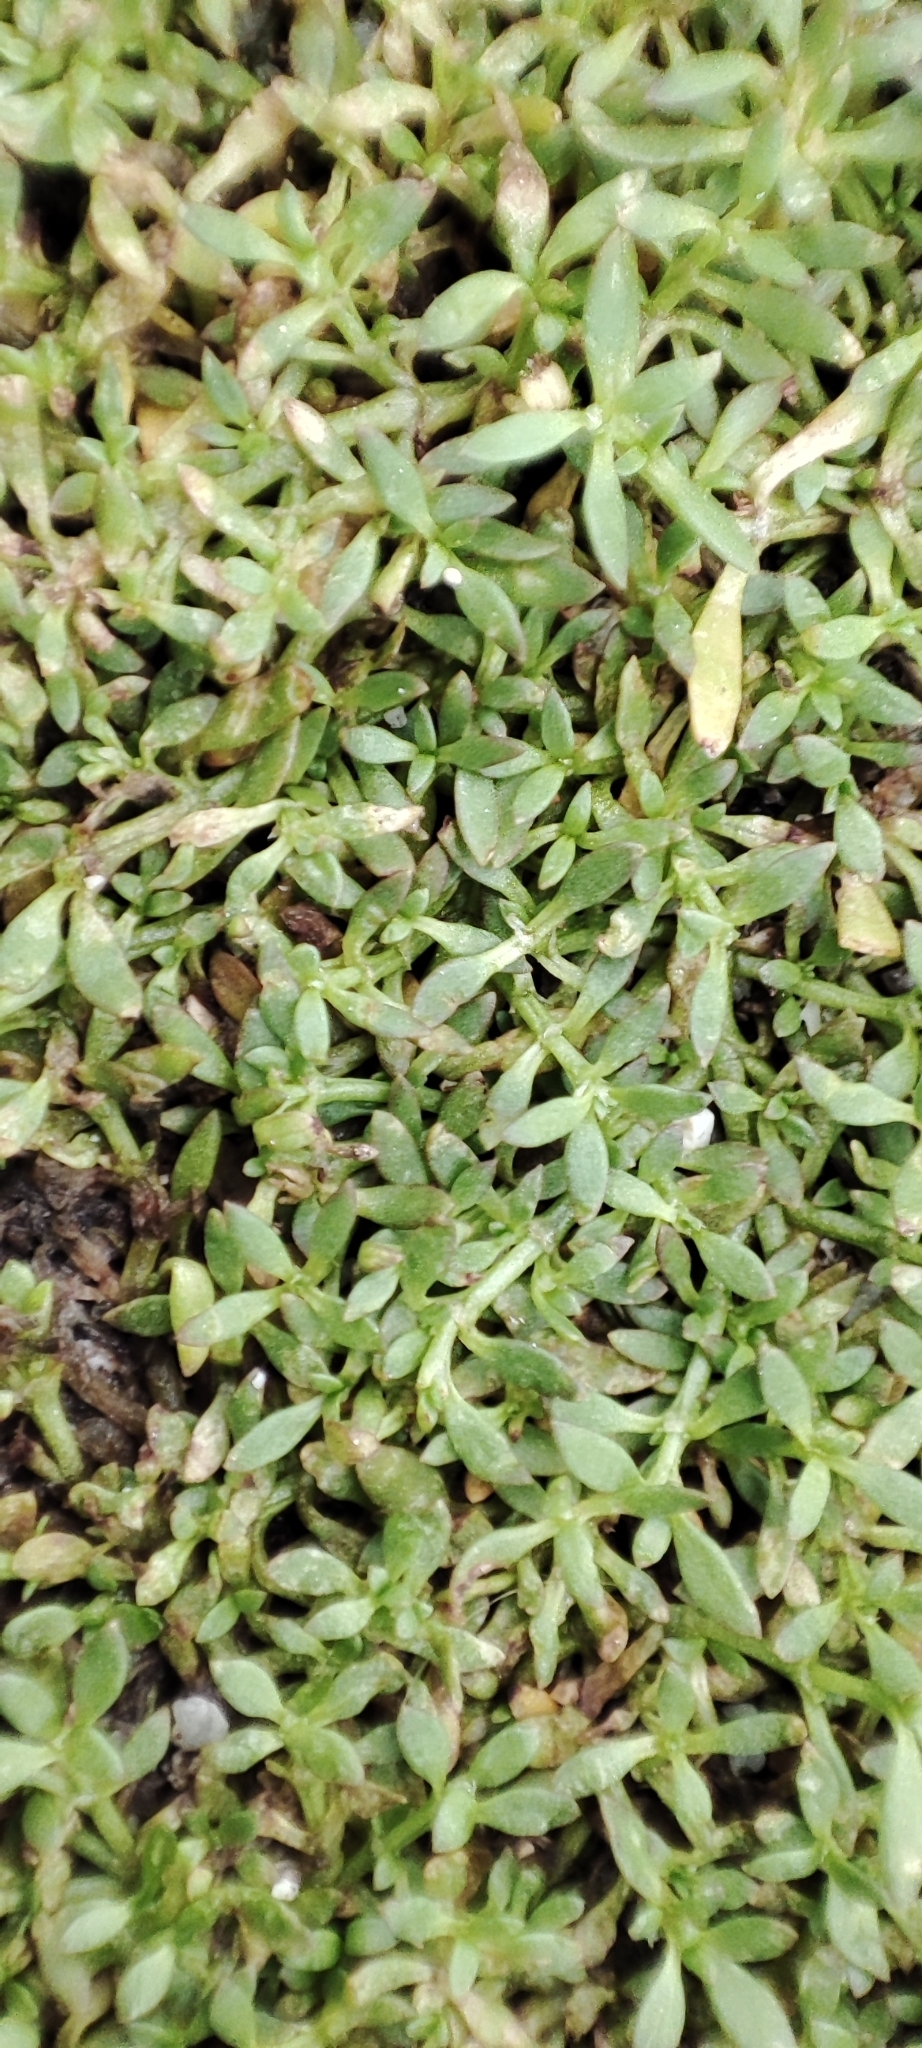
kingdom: Plantae
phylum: Tracheophyta
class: Magnoliopsida
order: Gentianales
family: Rubiaceae
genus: Dentella
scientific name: Dentella repens
